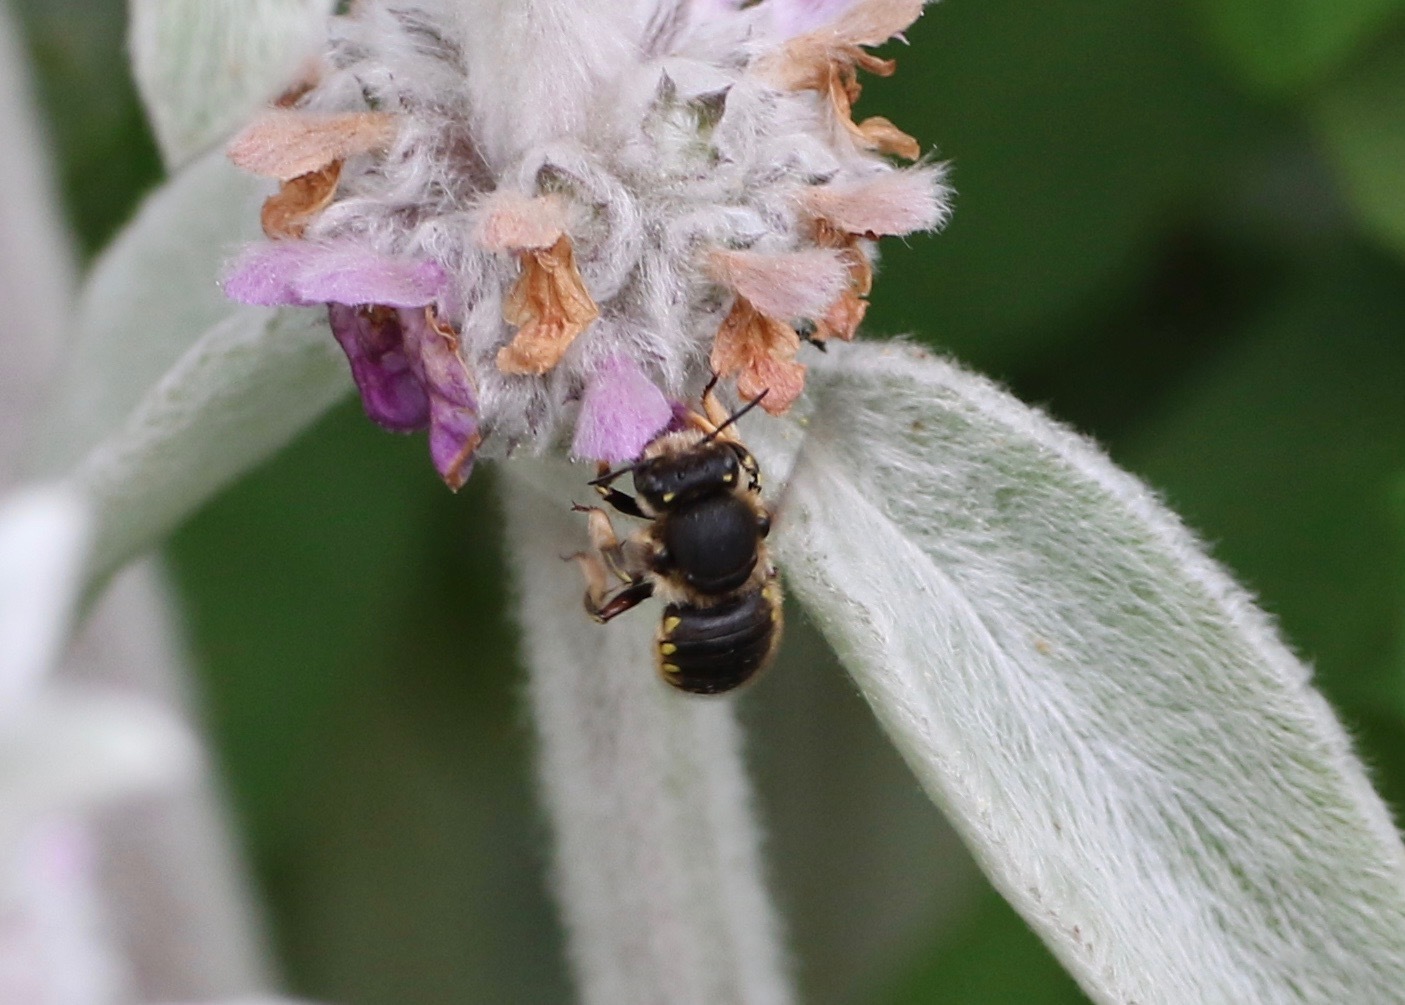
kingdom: Animalia
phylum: Arthropoda
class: Insecta
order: Hymenoptera
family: Megachilidae
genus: Anthidium
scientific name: Anthidium manicatum
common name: Wool carder bee
